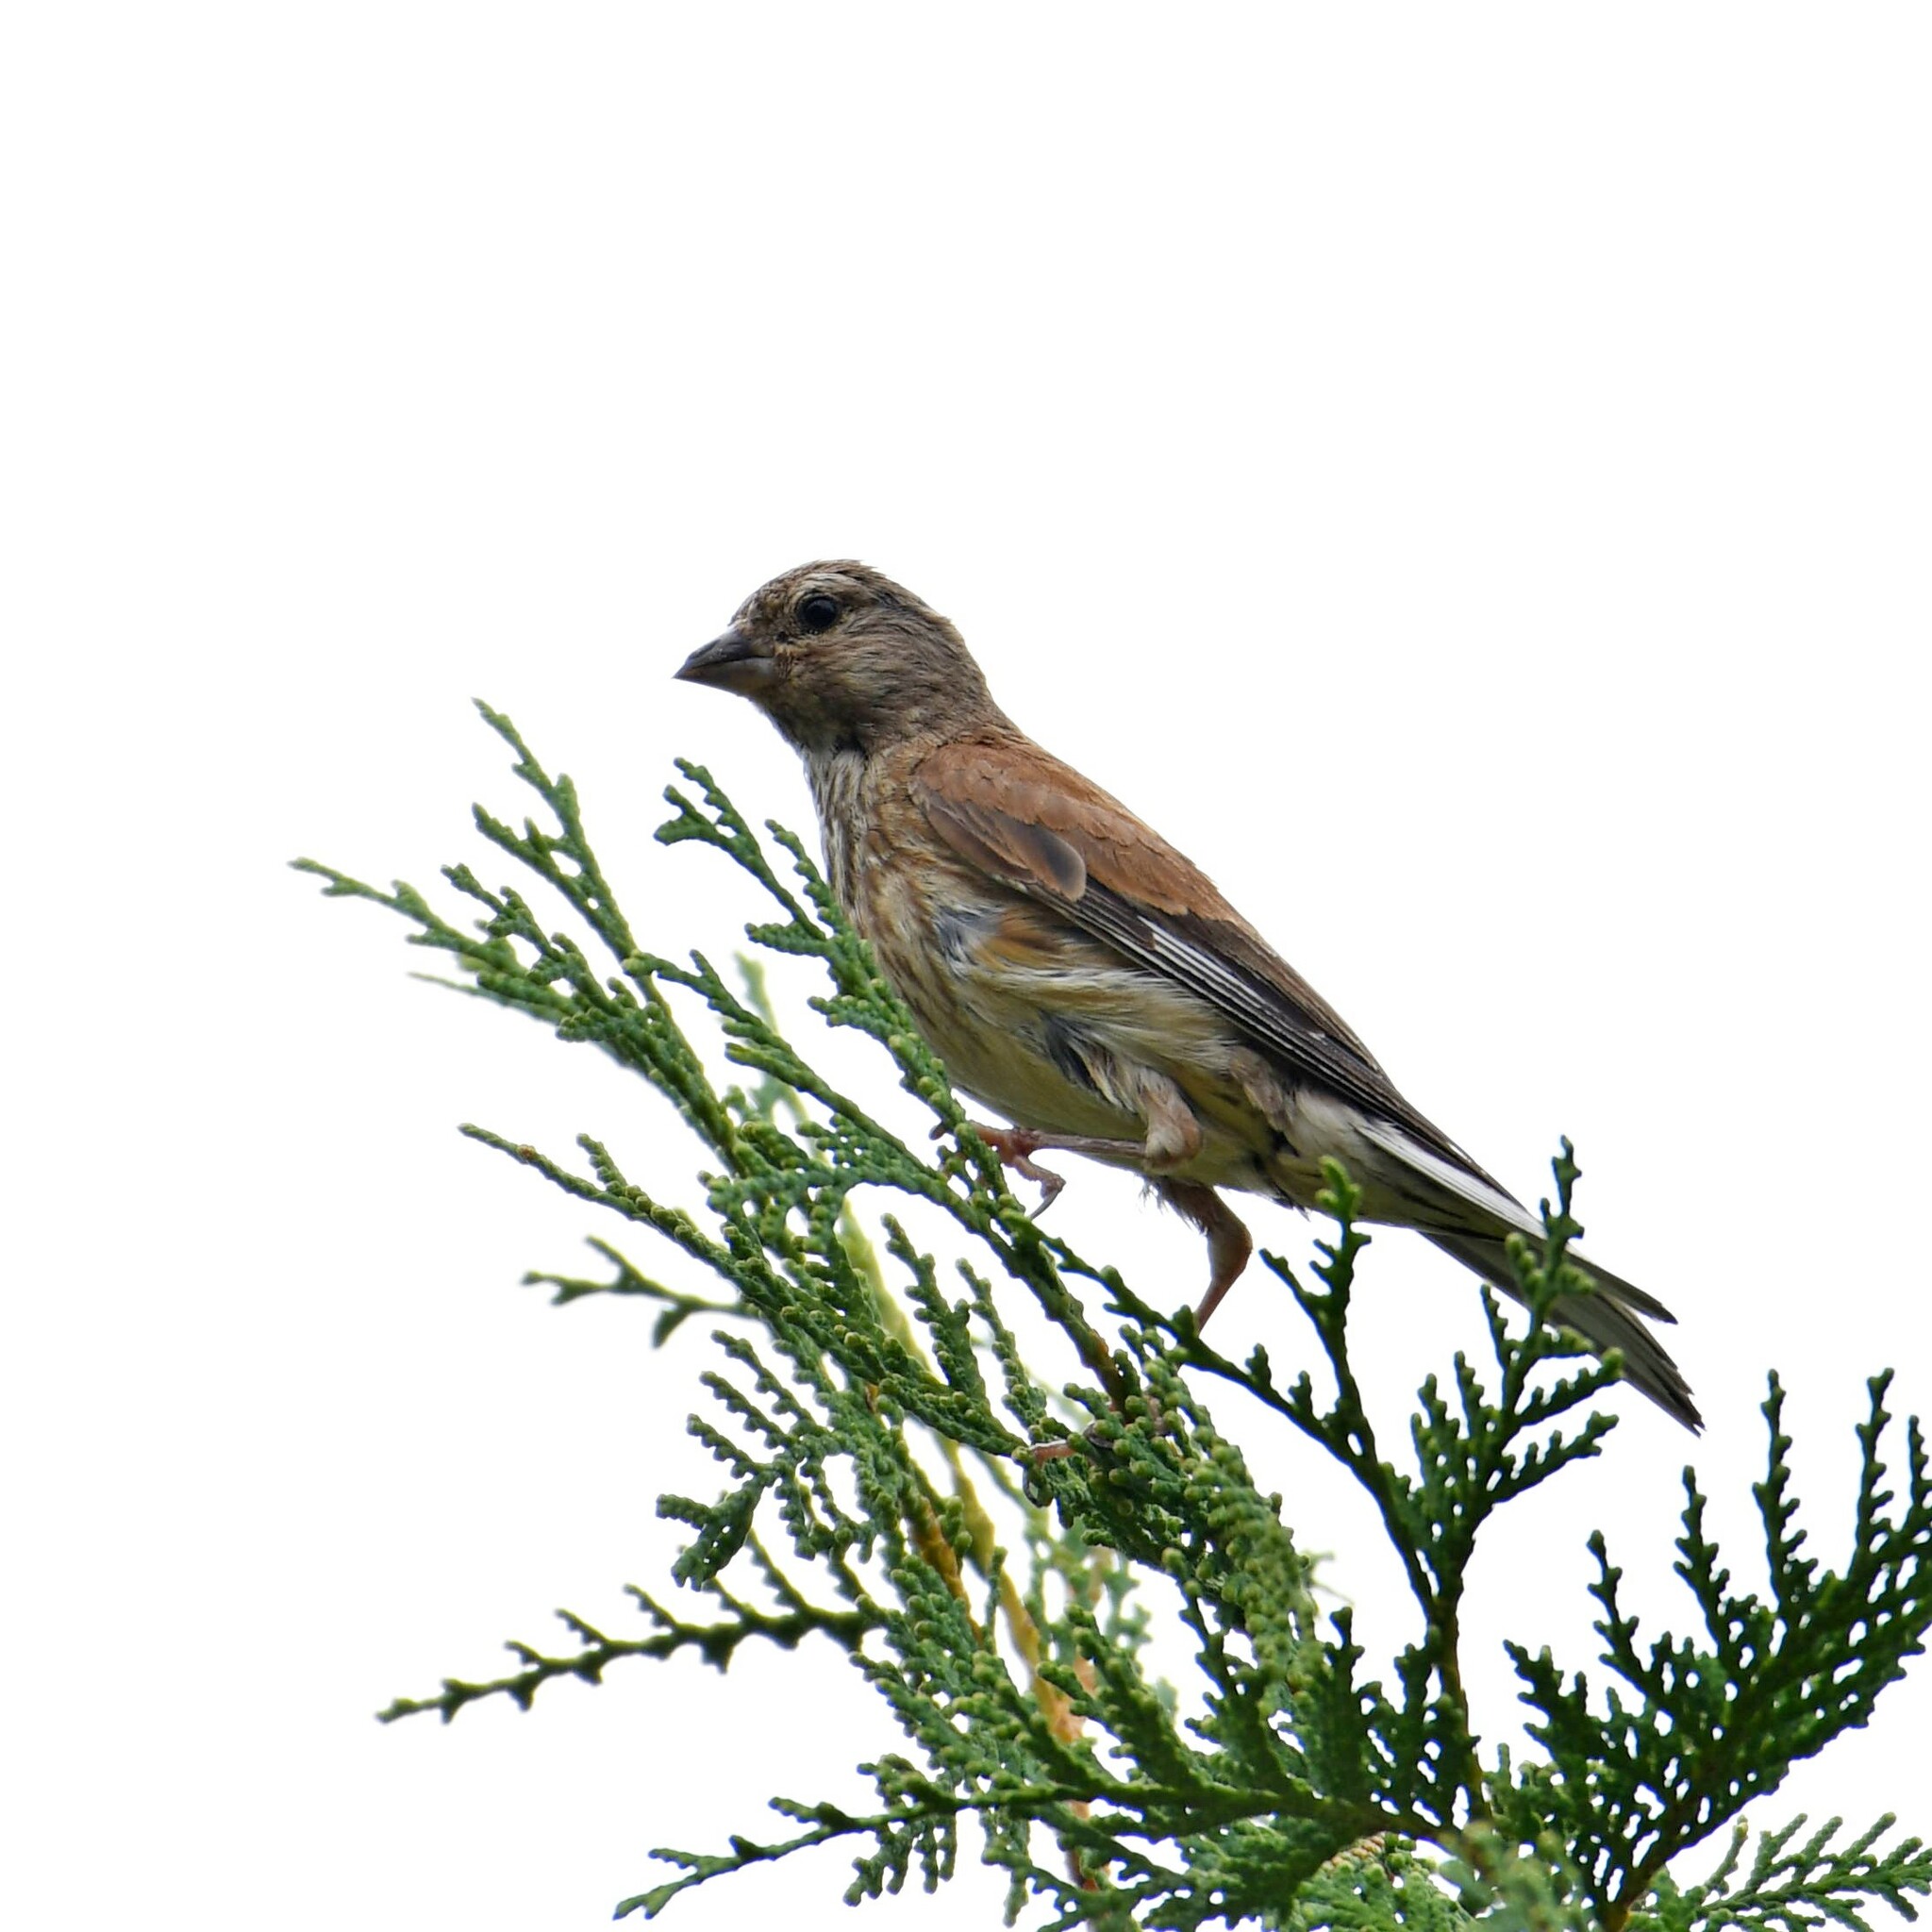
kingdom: Animalia
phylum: Chordata
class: Aves
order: Passeriformes
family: Fringillidae
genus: Linaria
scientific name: Linaria cannabina
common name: Common linnet
